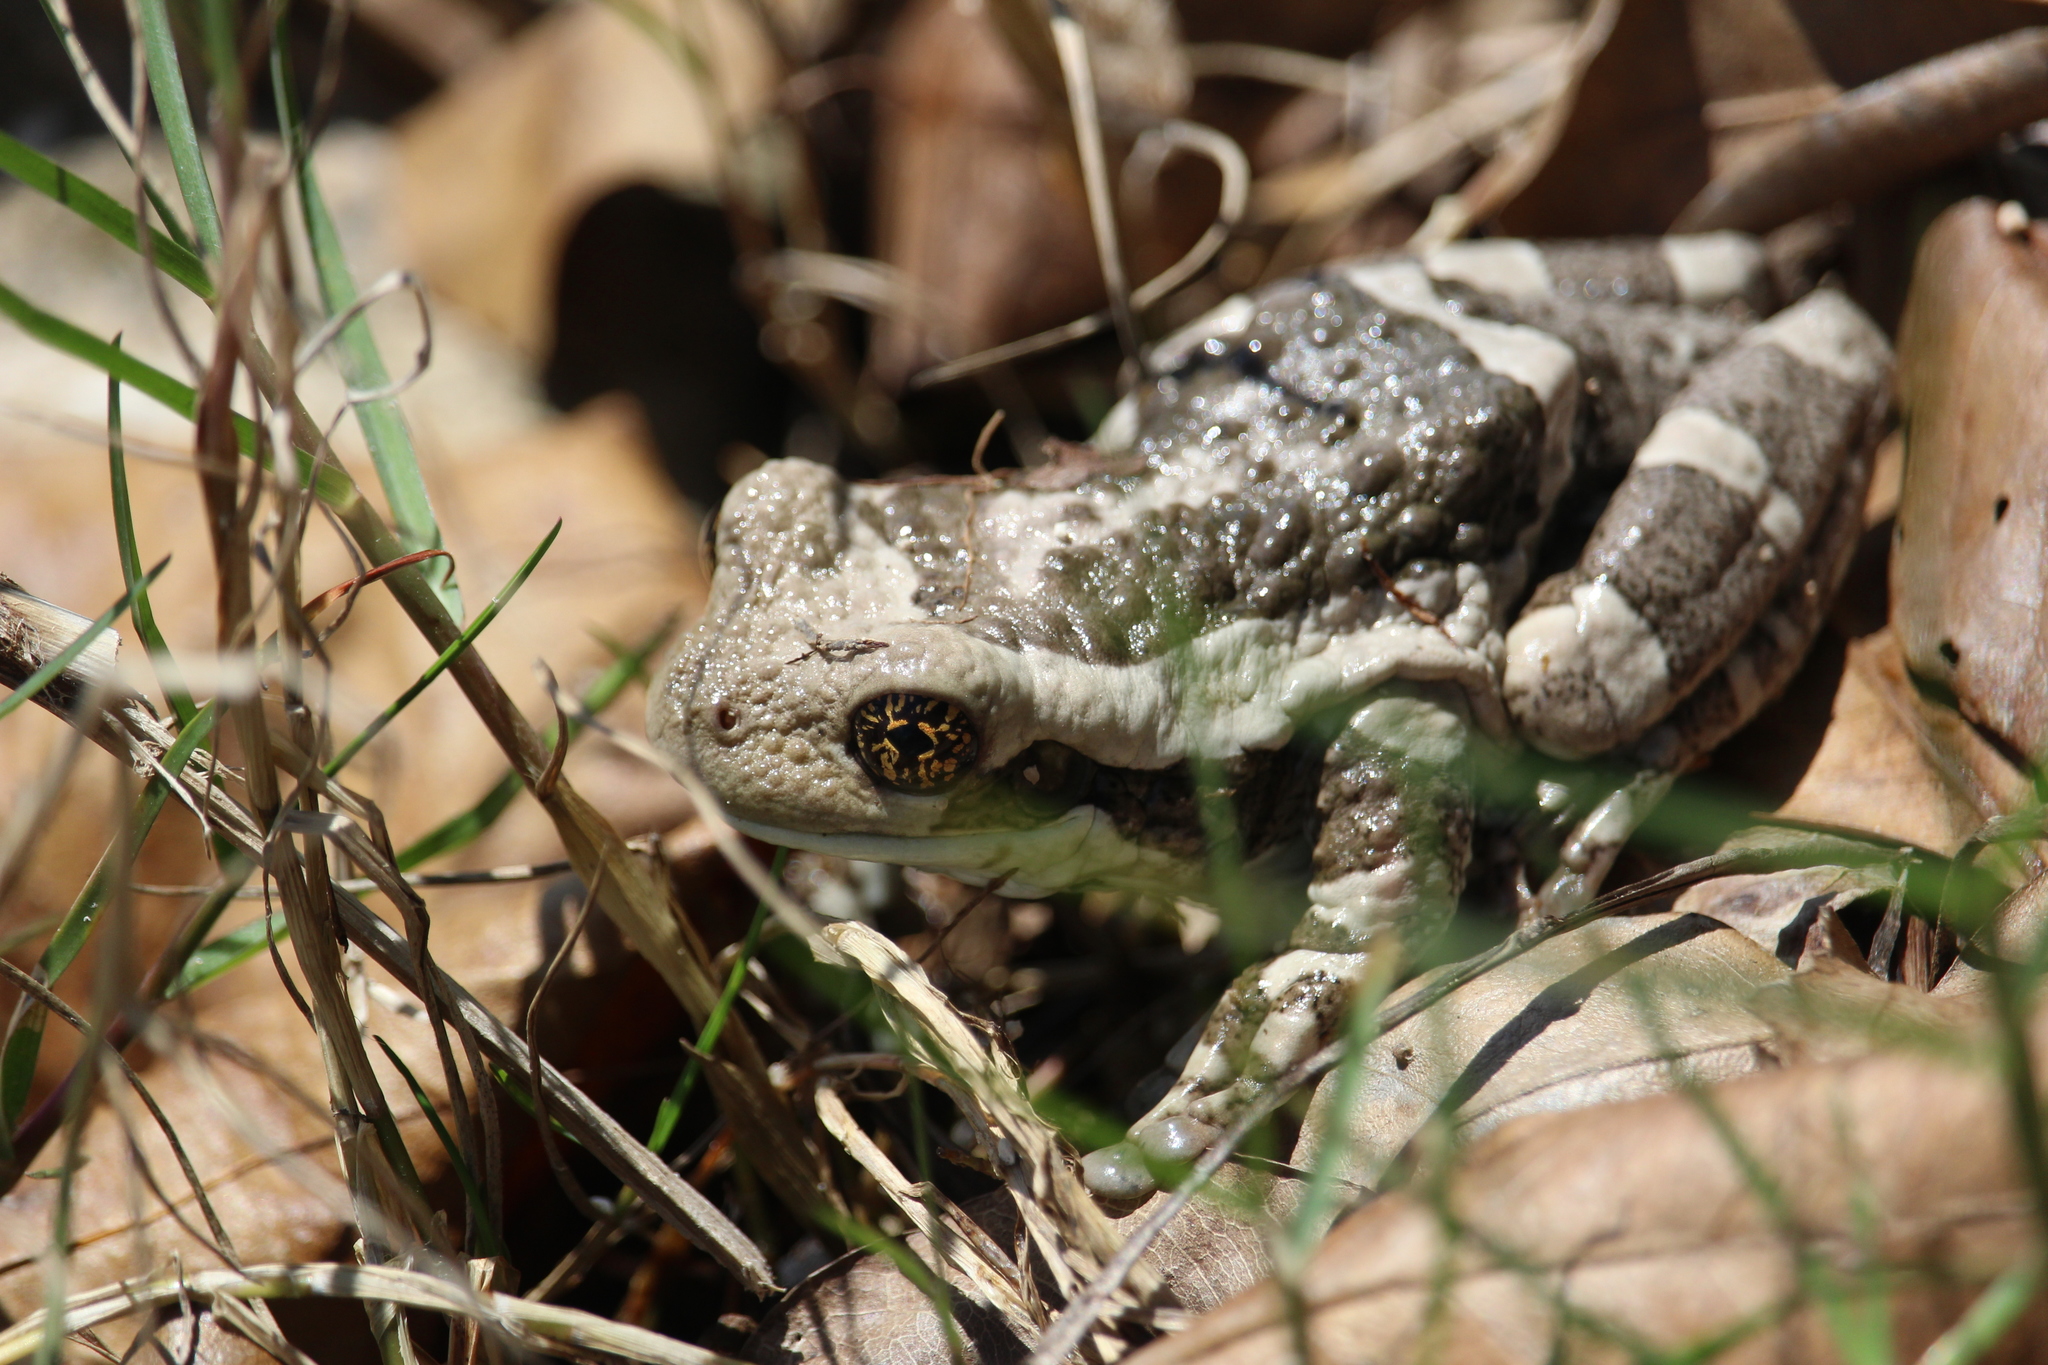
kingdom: Animalia
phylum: Chordata
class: Amphibia
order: Anura
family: Hylidae
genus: Trachycephalus
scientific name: Trachycephalus vermiculatus
